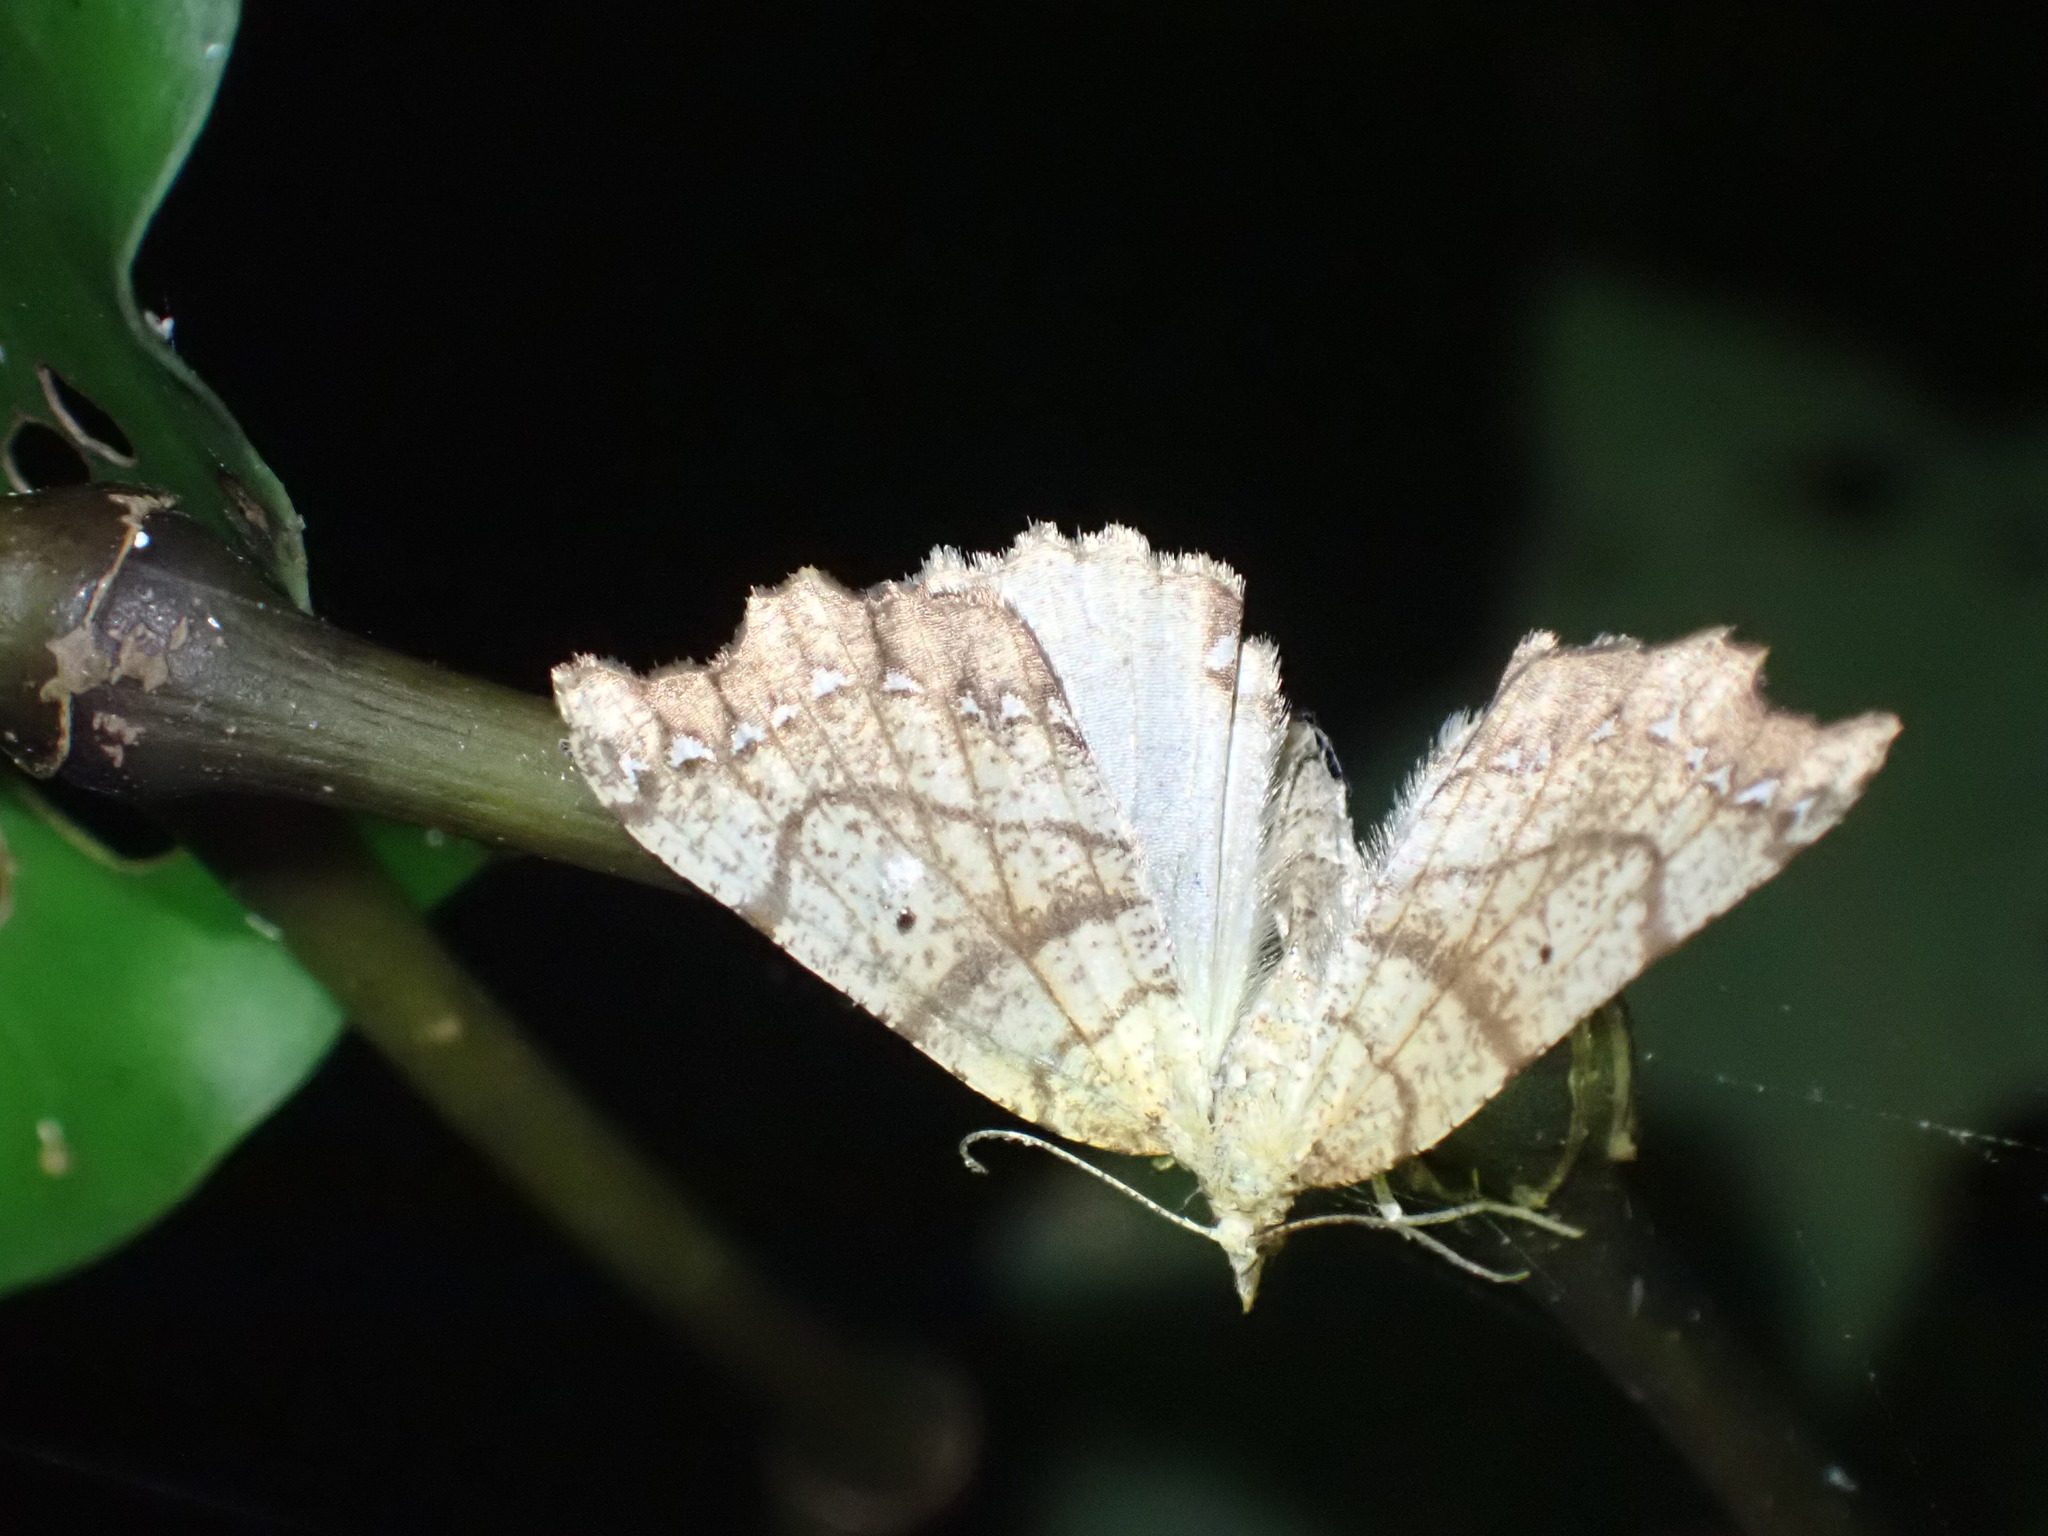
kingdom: Animalia
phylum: Arthropoda
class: Insecta
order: Lepidoptera
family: Geometridae
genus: Chalastra
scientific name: Chalastra pellurgata
